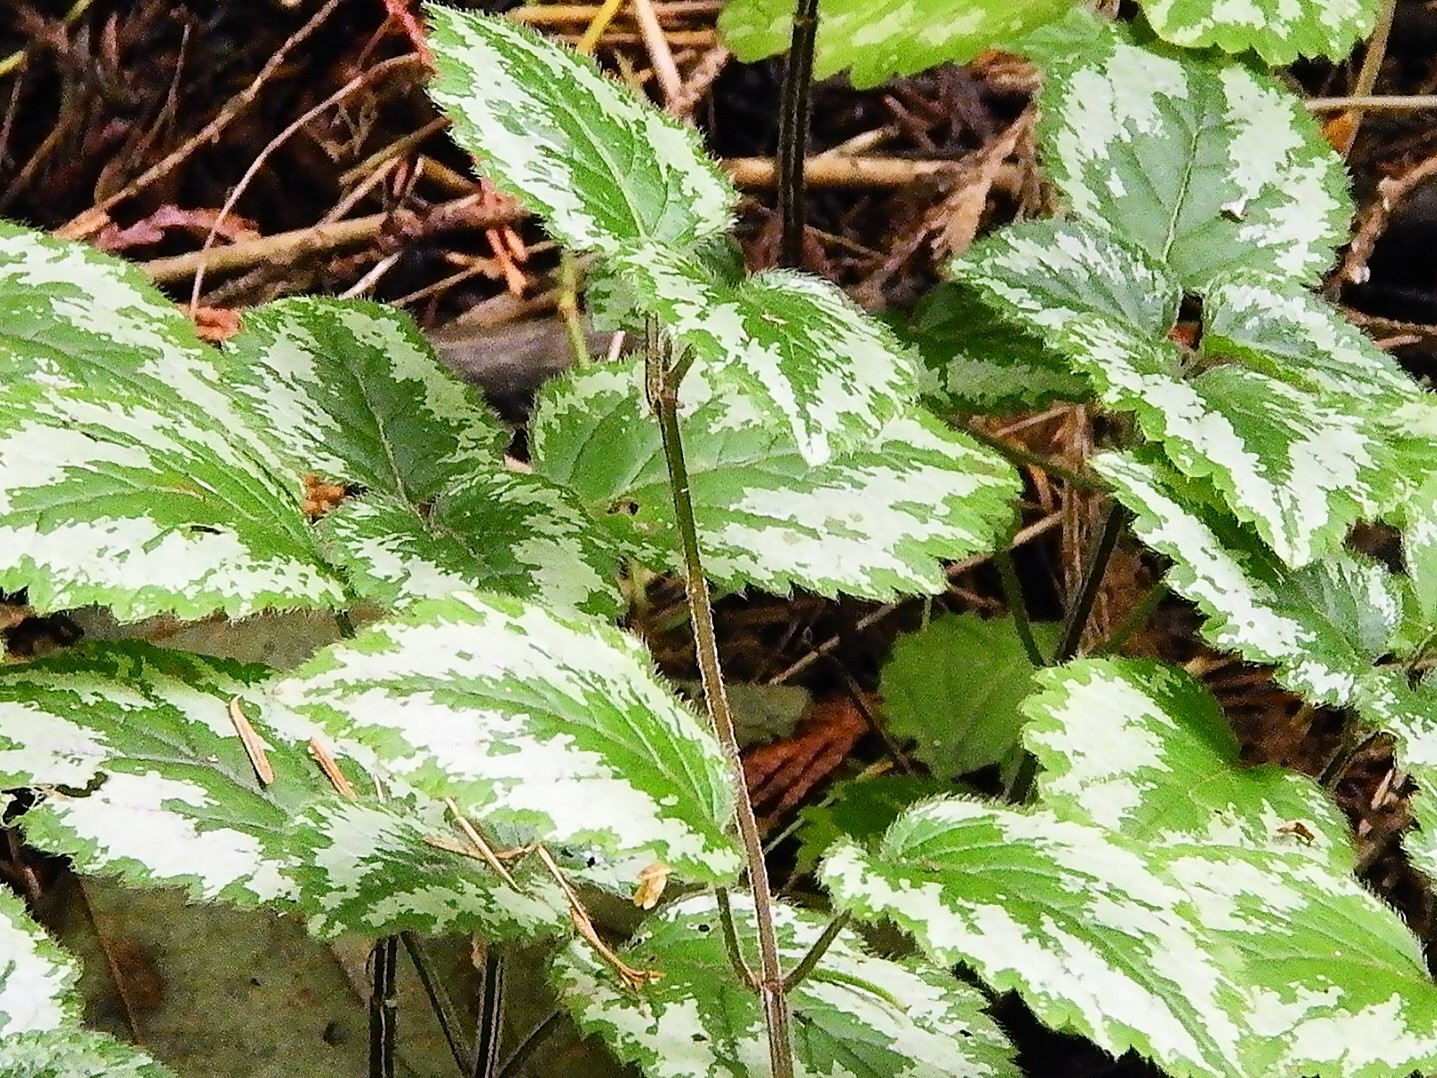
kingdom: Plantae
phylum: Tracheophyta
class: Magnoliopsida
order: Lamiales
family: Lamiaceae
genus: Lamium
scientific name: Lamium galeobdolon
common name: Yellow archangel
